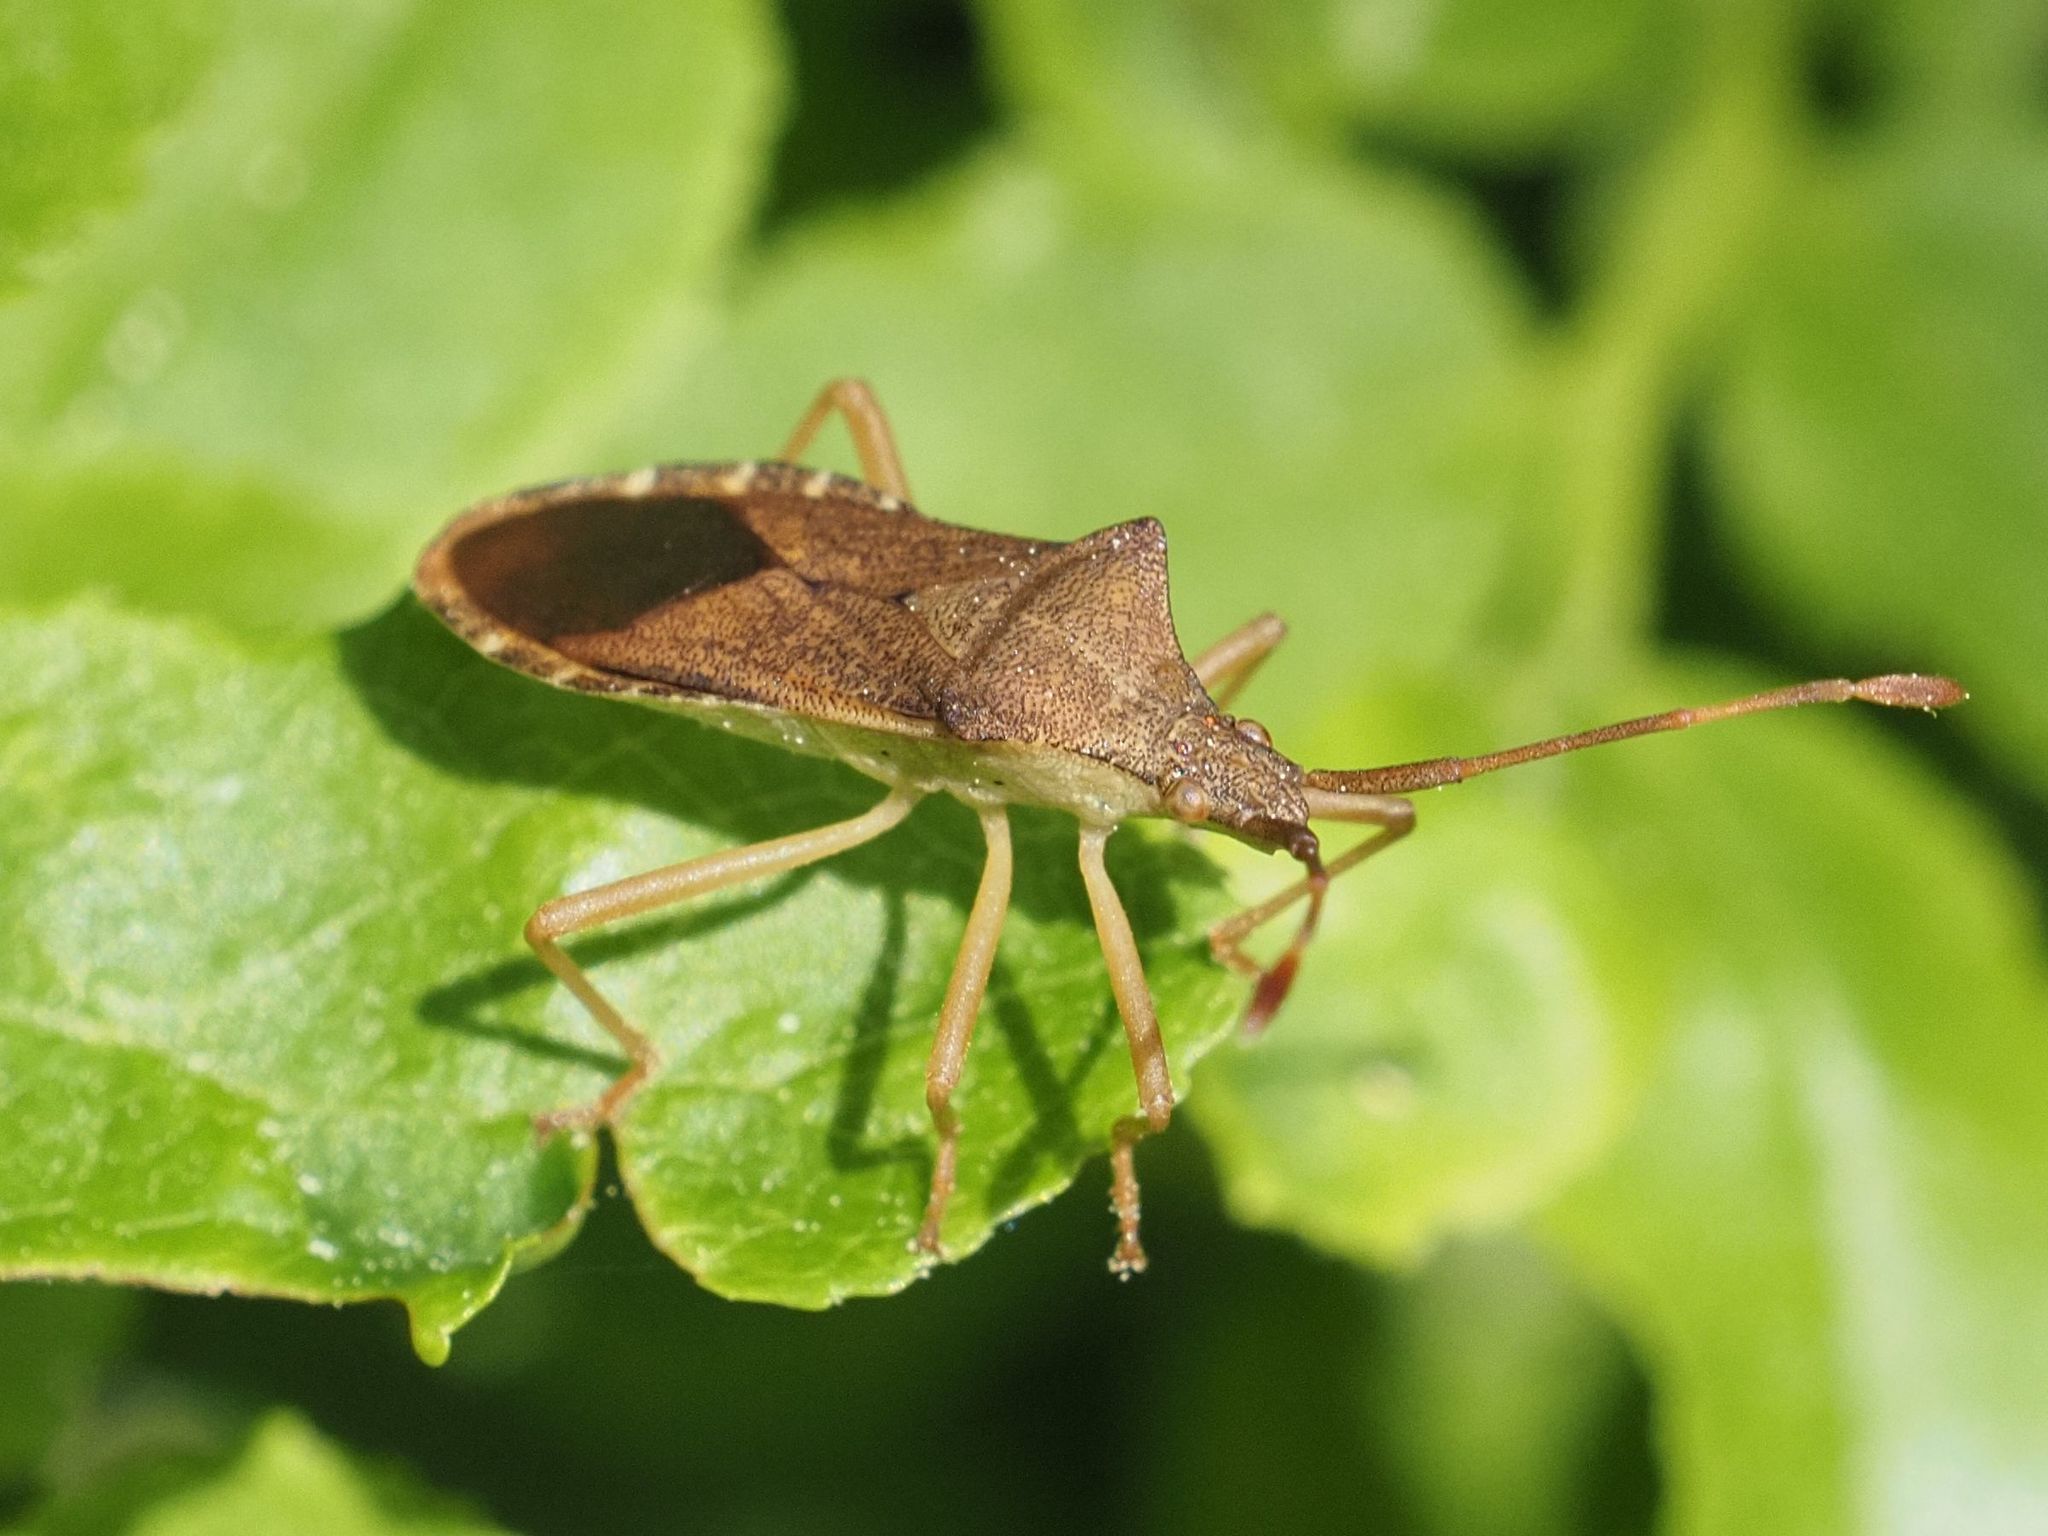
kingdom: Animalia
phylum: Arthropoda
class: Insecta
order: Hemiptera
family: Coreidae
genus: Gonocerus
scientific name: Gonocerus acuteangulatus
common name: Box bug
